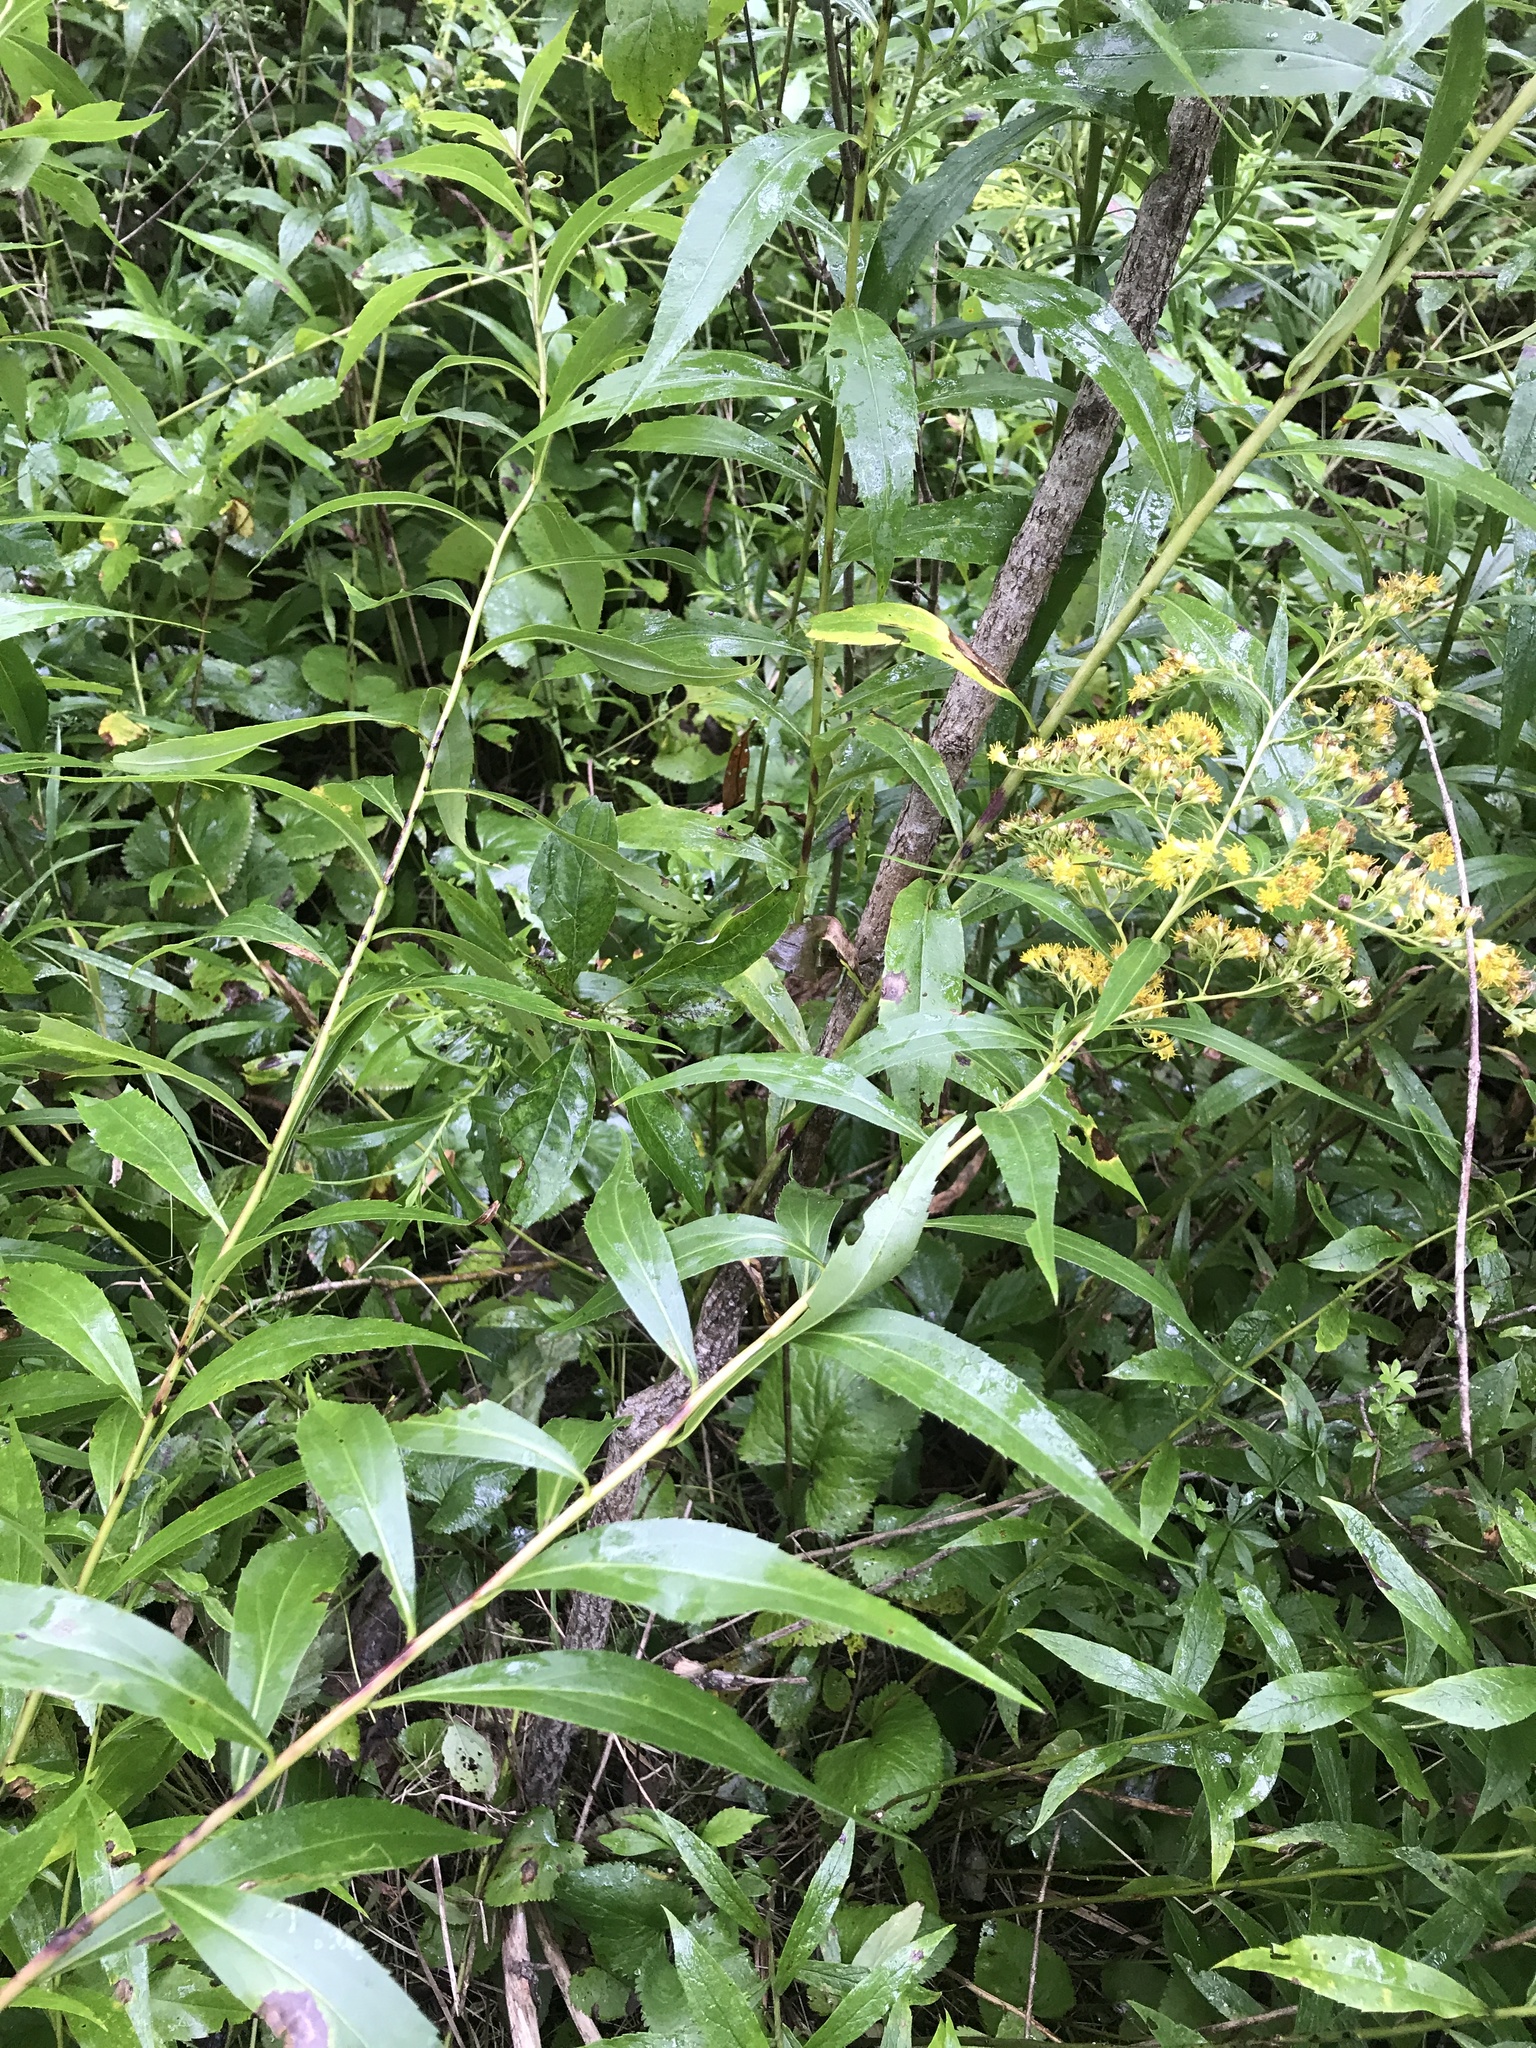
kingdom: Plantae
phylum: Tracheophyta
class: Magnoliopsida
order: Asterales
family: Asteraceae
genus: Solidago
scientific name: Solidago gigantea
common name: Giant goldenrod
